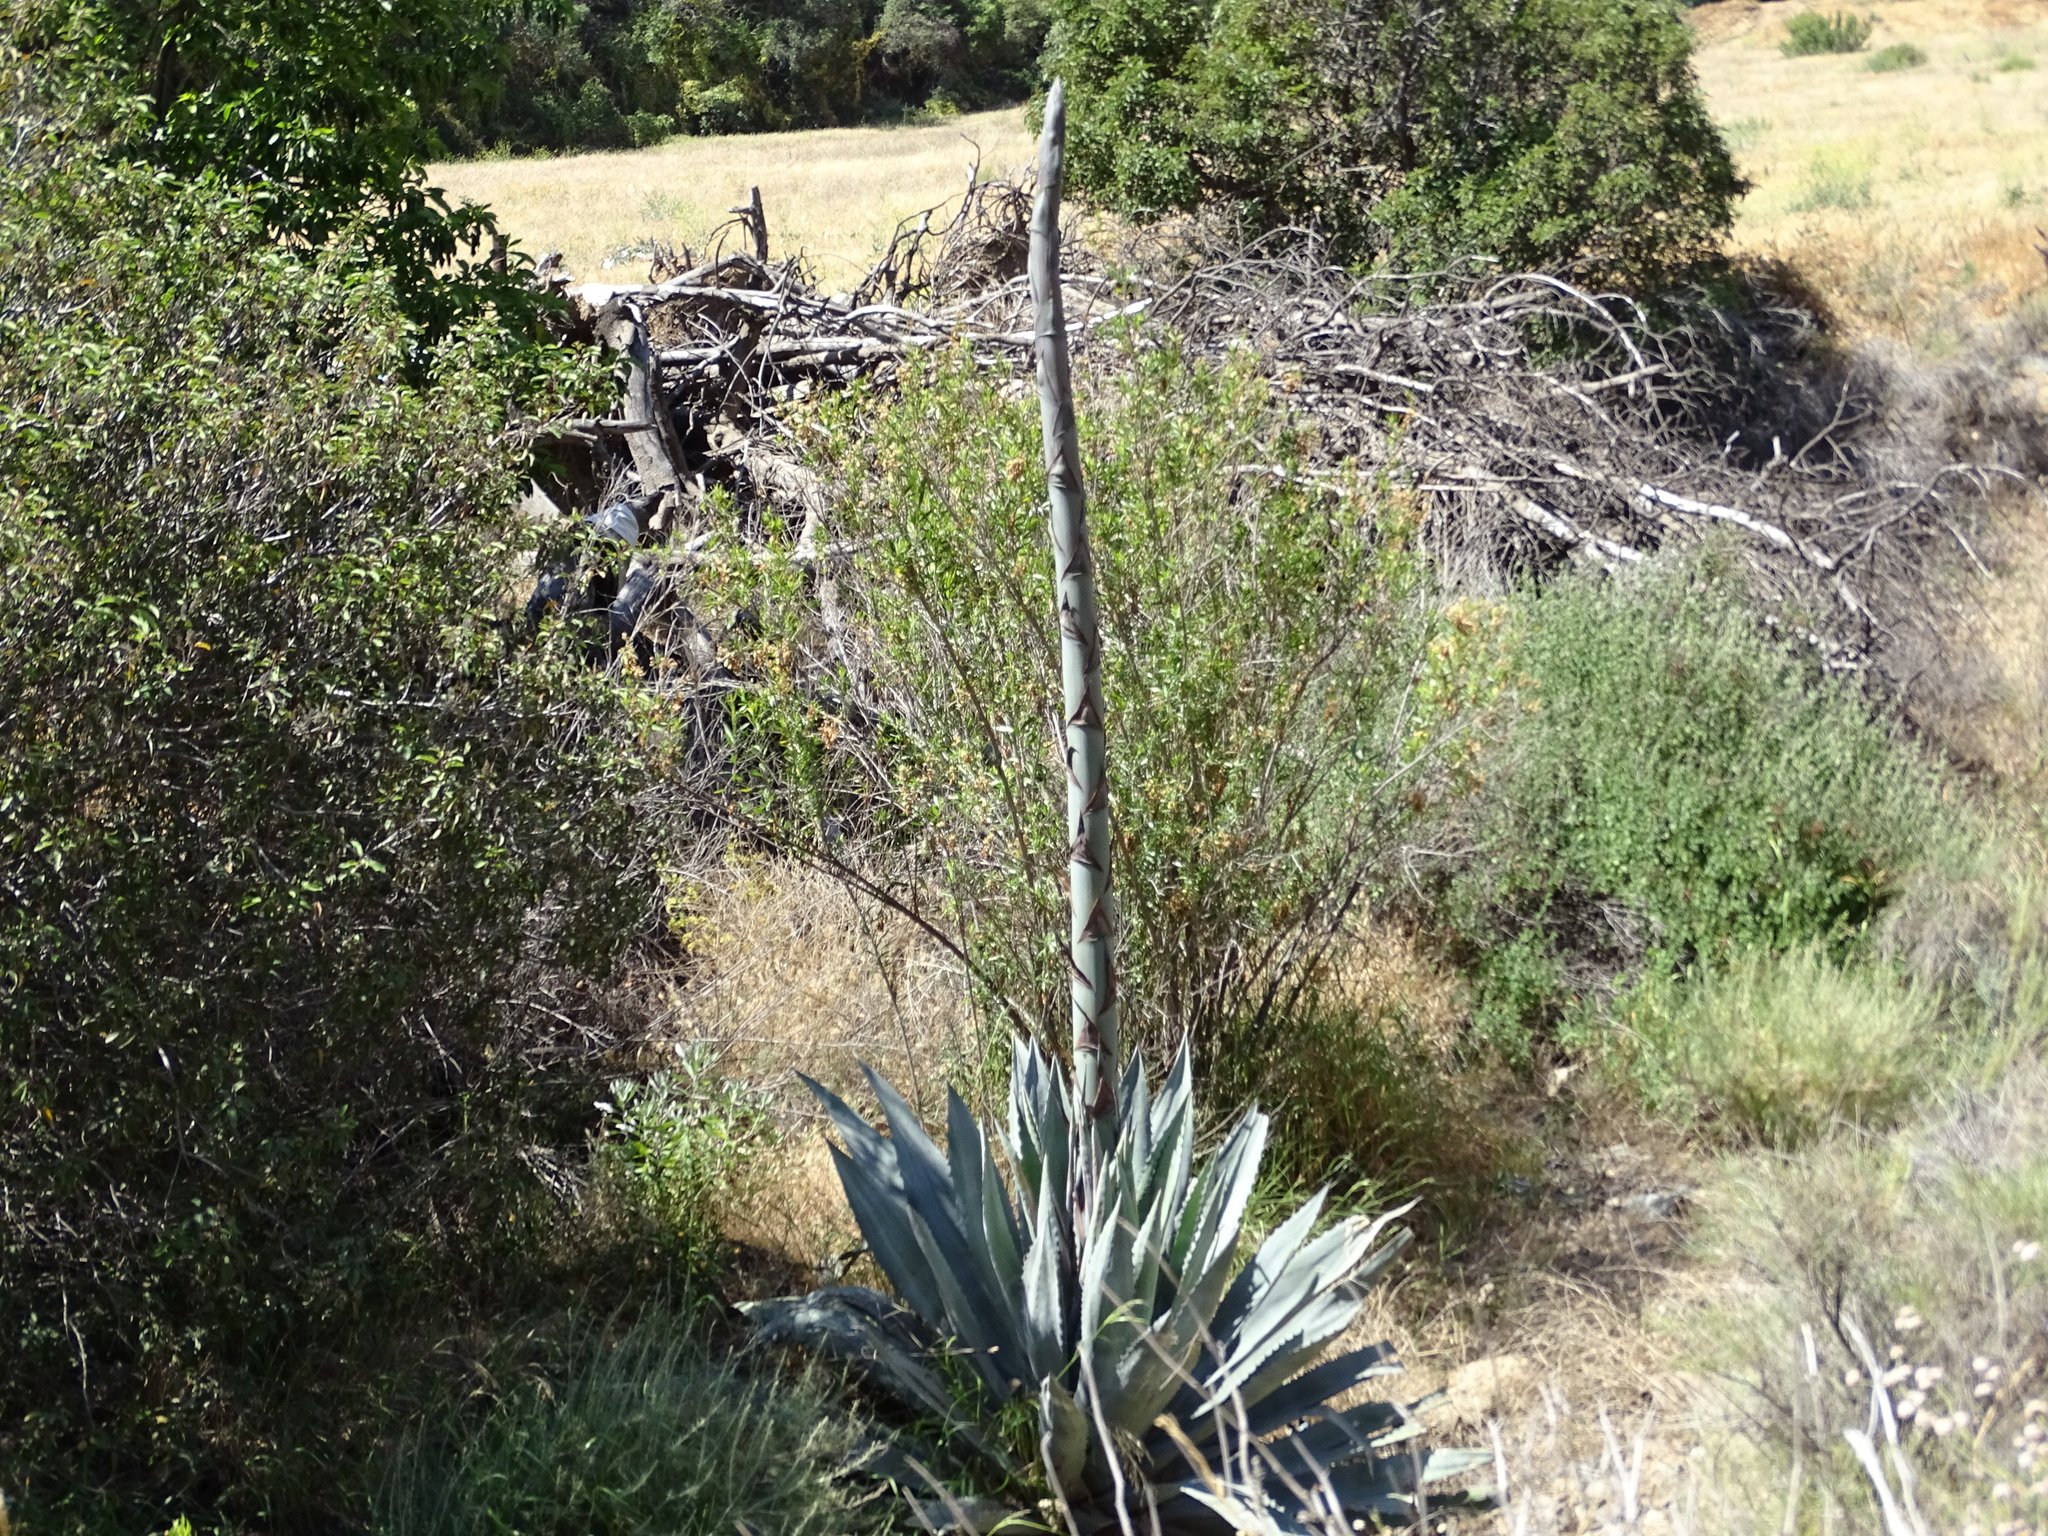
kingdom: Plantae
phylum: Tracheophyta
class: Liliopsida
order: Asparagales
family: Asparagaceae
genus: Agave
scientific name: Agave americana
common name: Centuryplant
